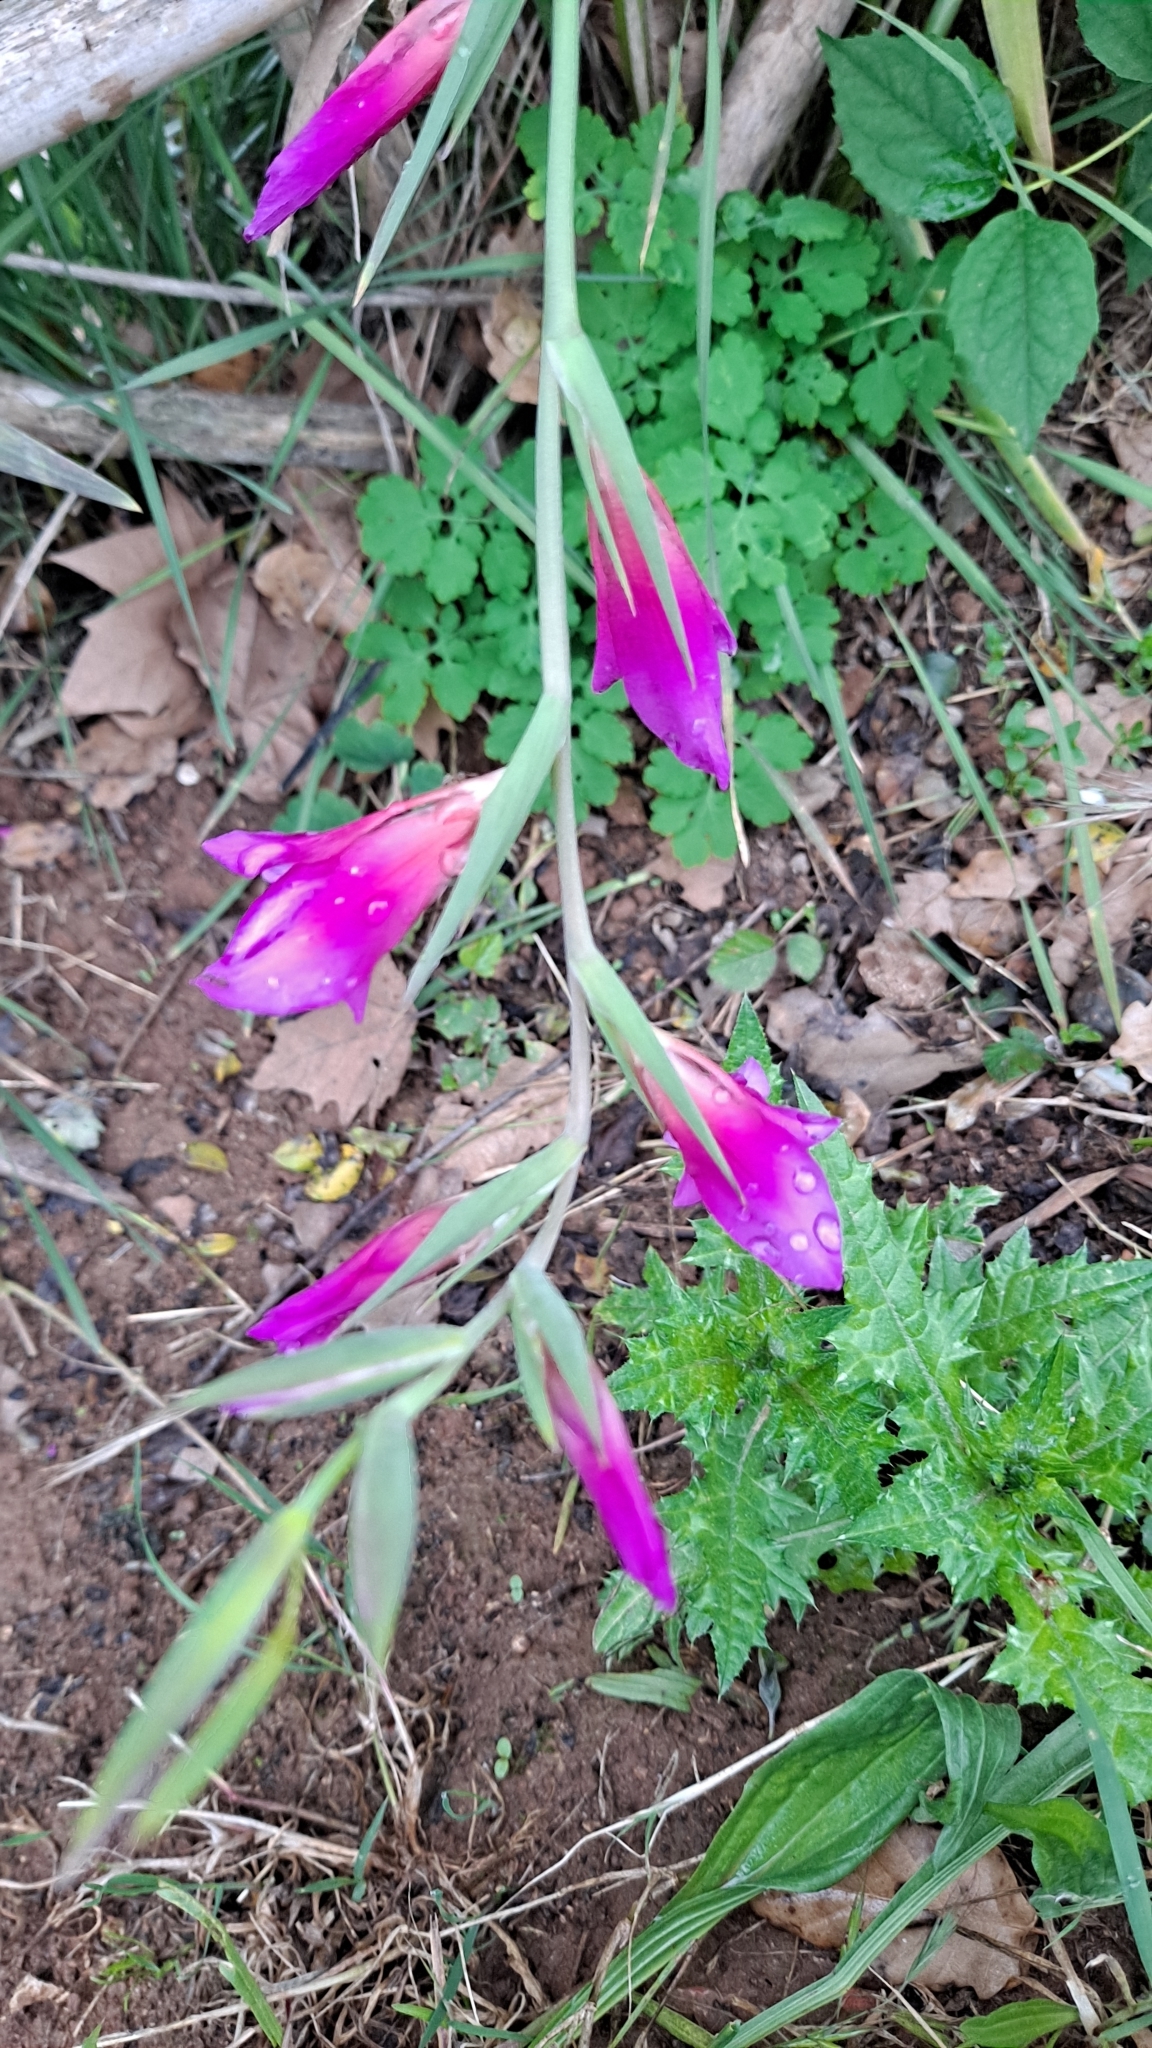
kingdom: Plantae
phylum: Tracheophyta
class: Liliopsida
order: Asparagales
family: Iridaceae
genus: Gladiolus
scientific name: Gladiolus italicus
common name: Field gladiolus
